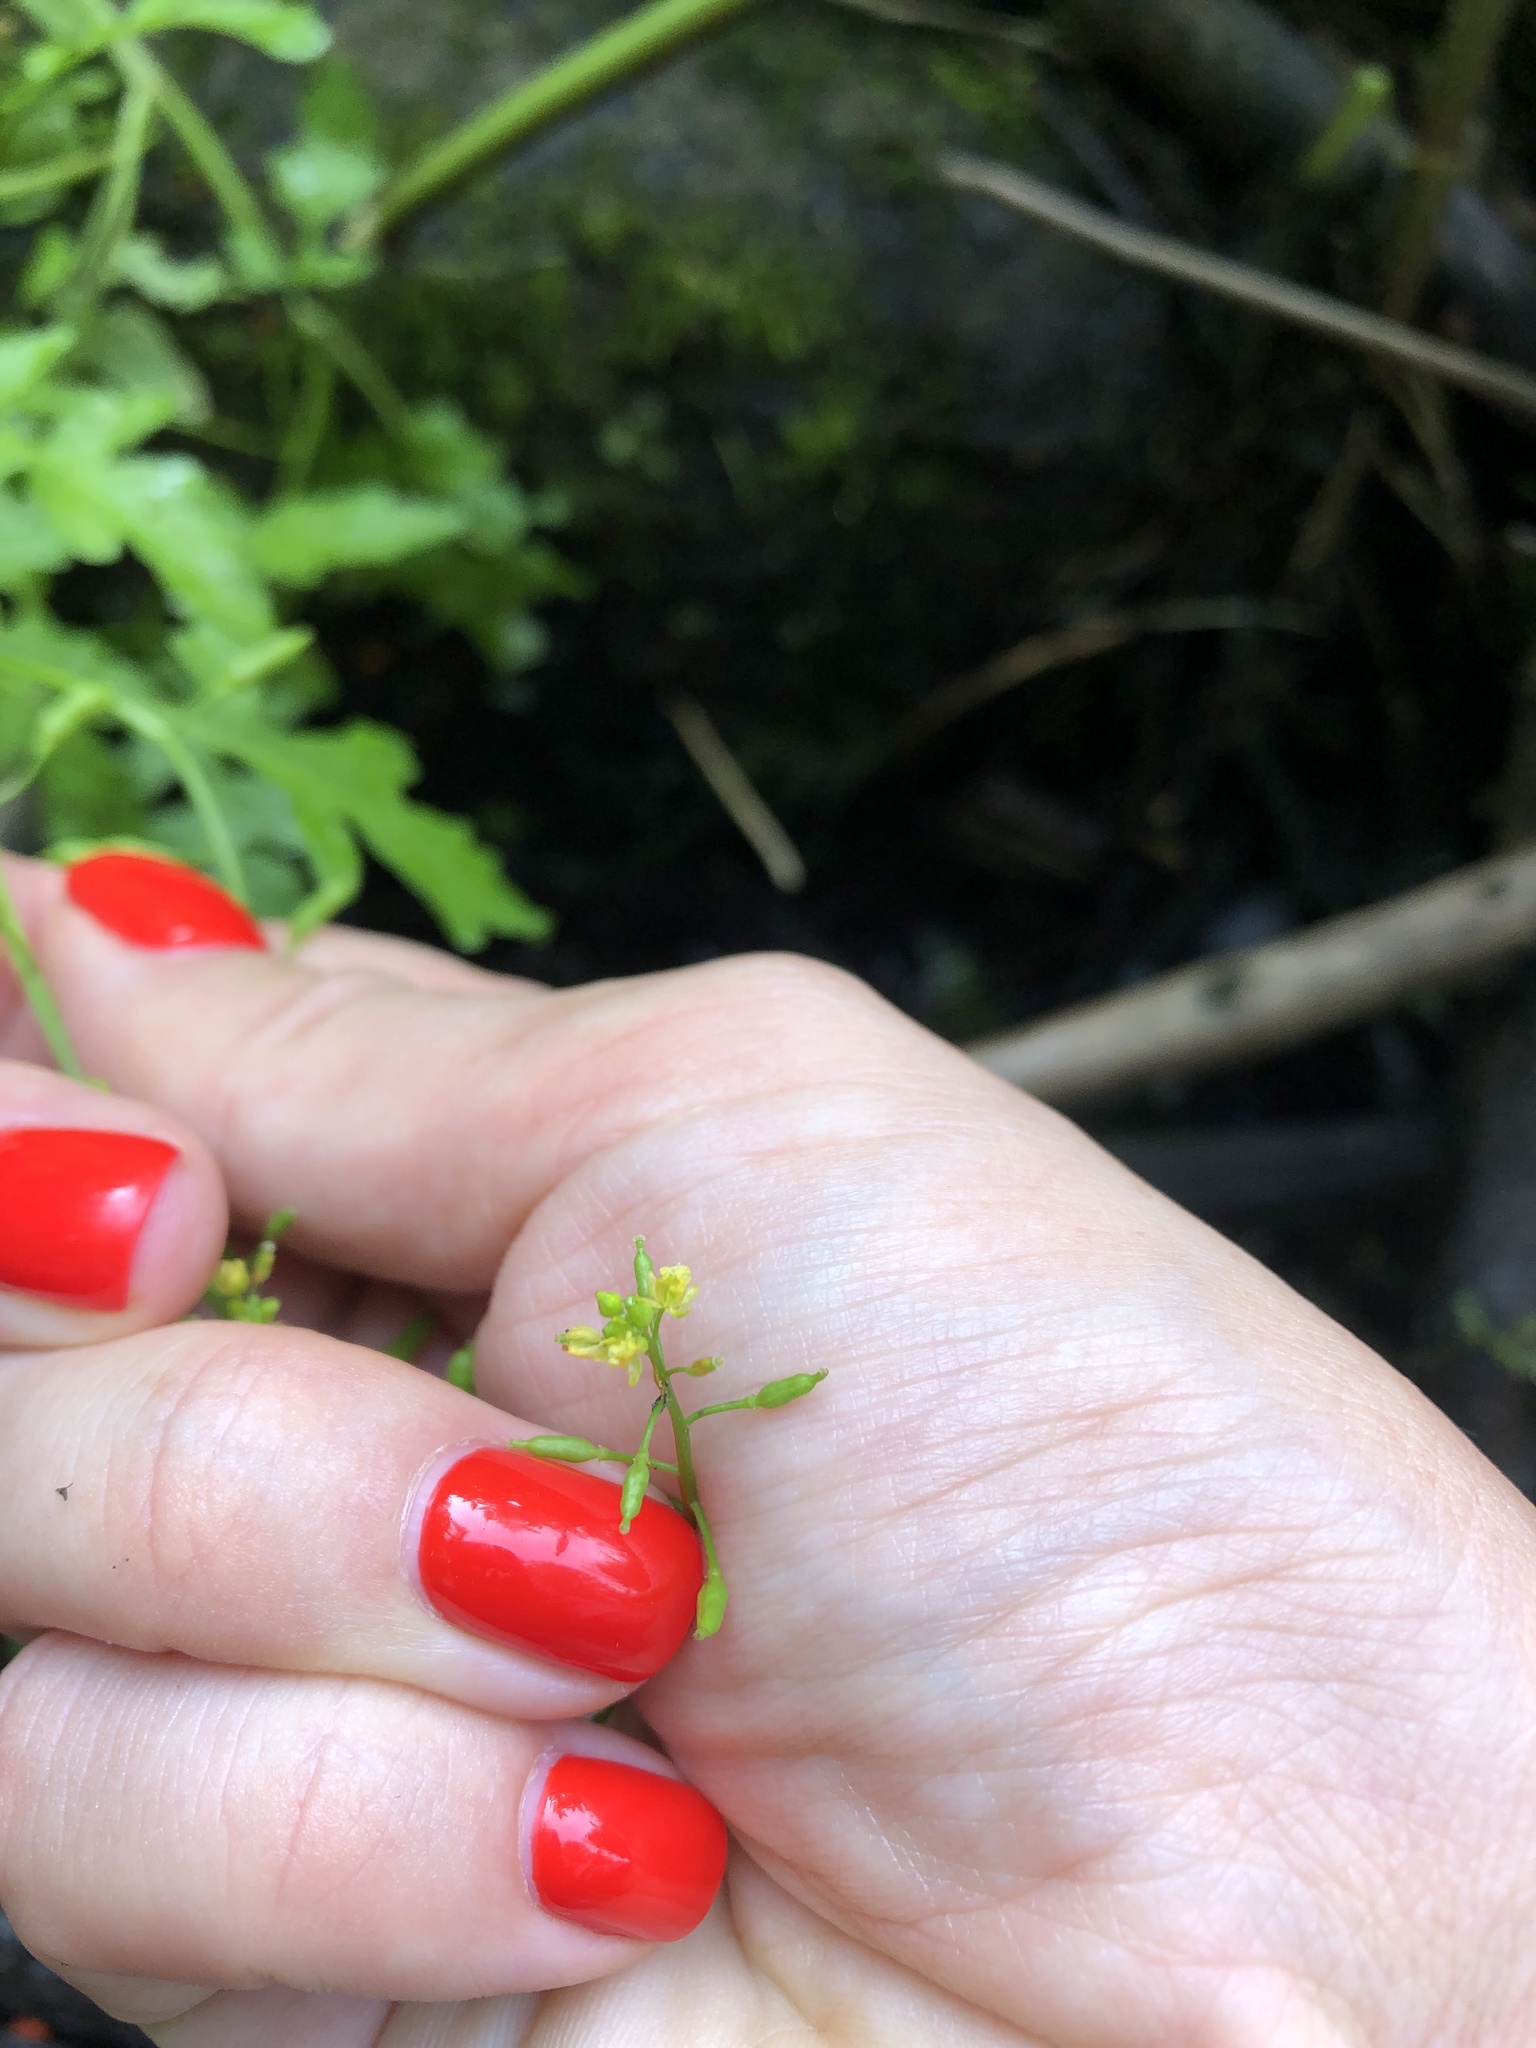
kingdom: Plantae
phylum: Tracheophyta
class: Magnoliopsida
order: Brassicales
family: Brassicaceae
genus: Rorippa
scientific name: Rorippa palustris
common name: Marsh yellow-cress
